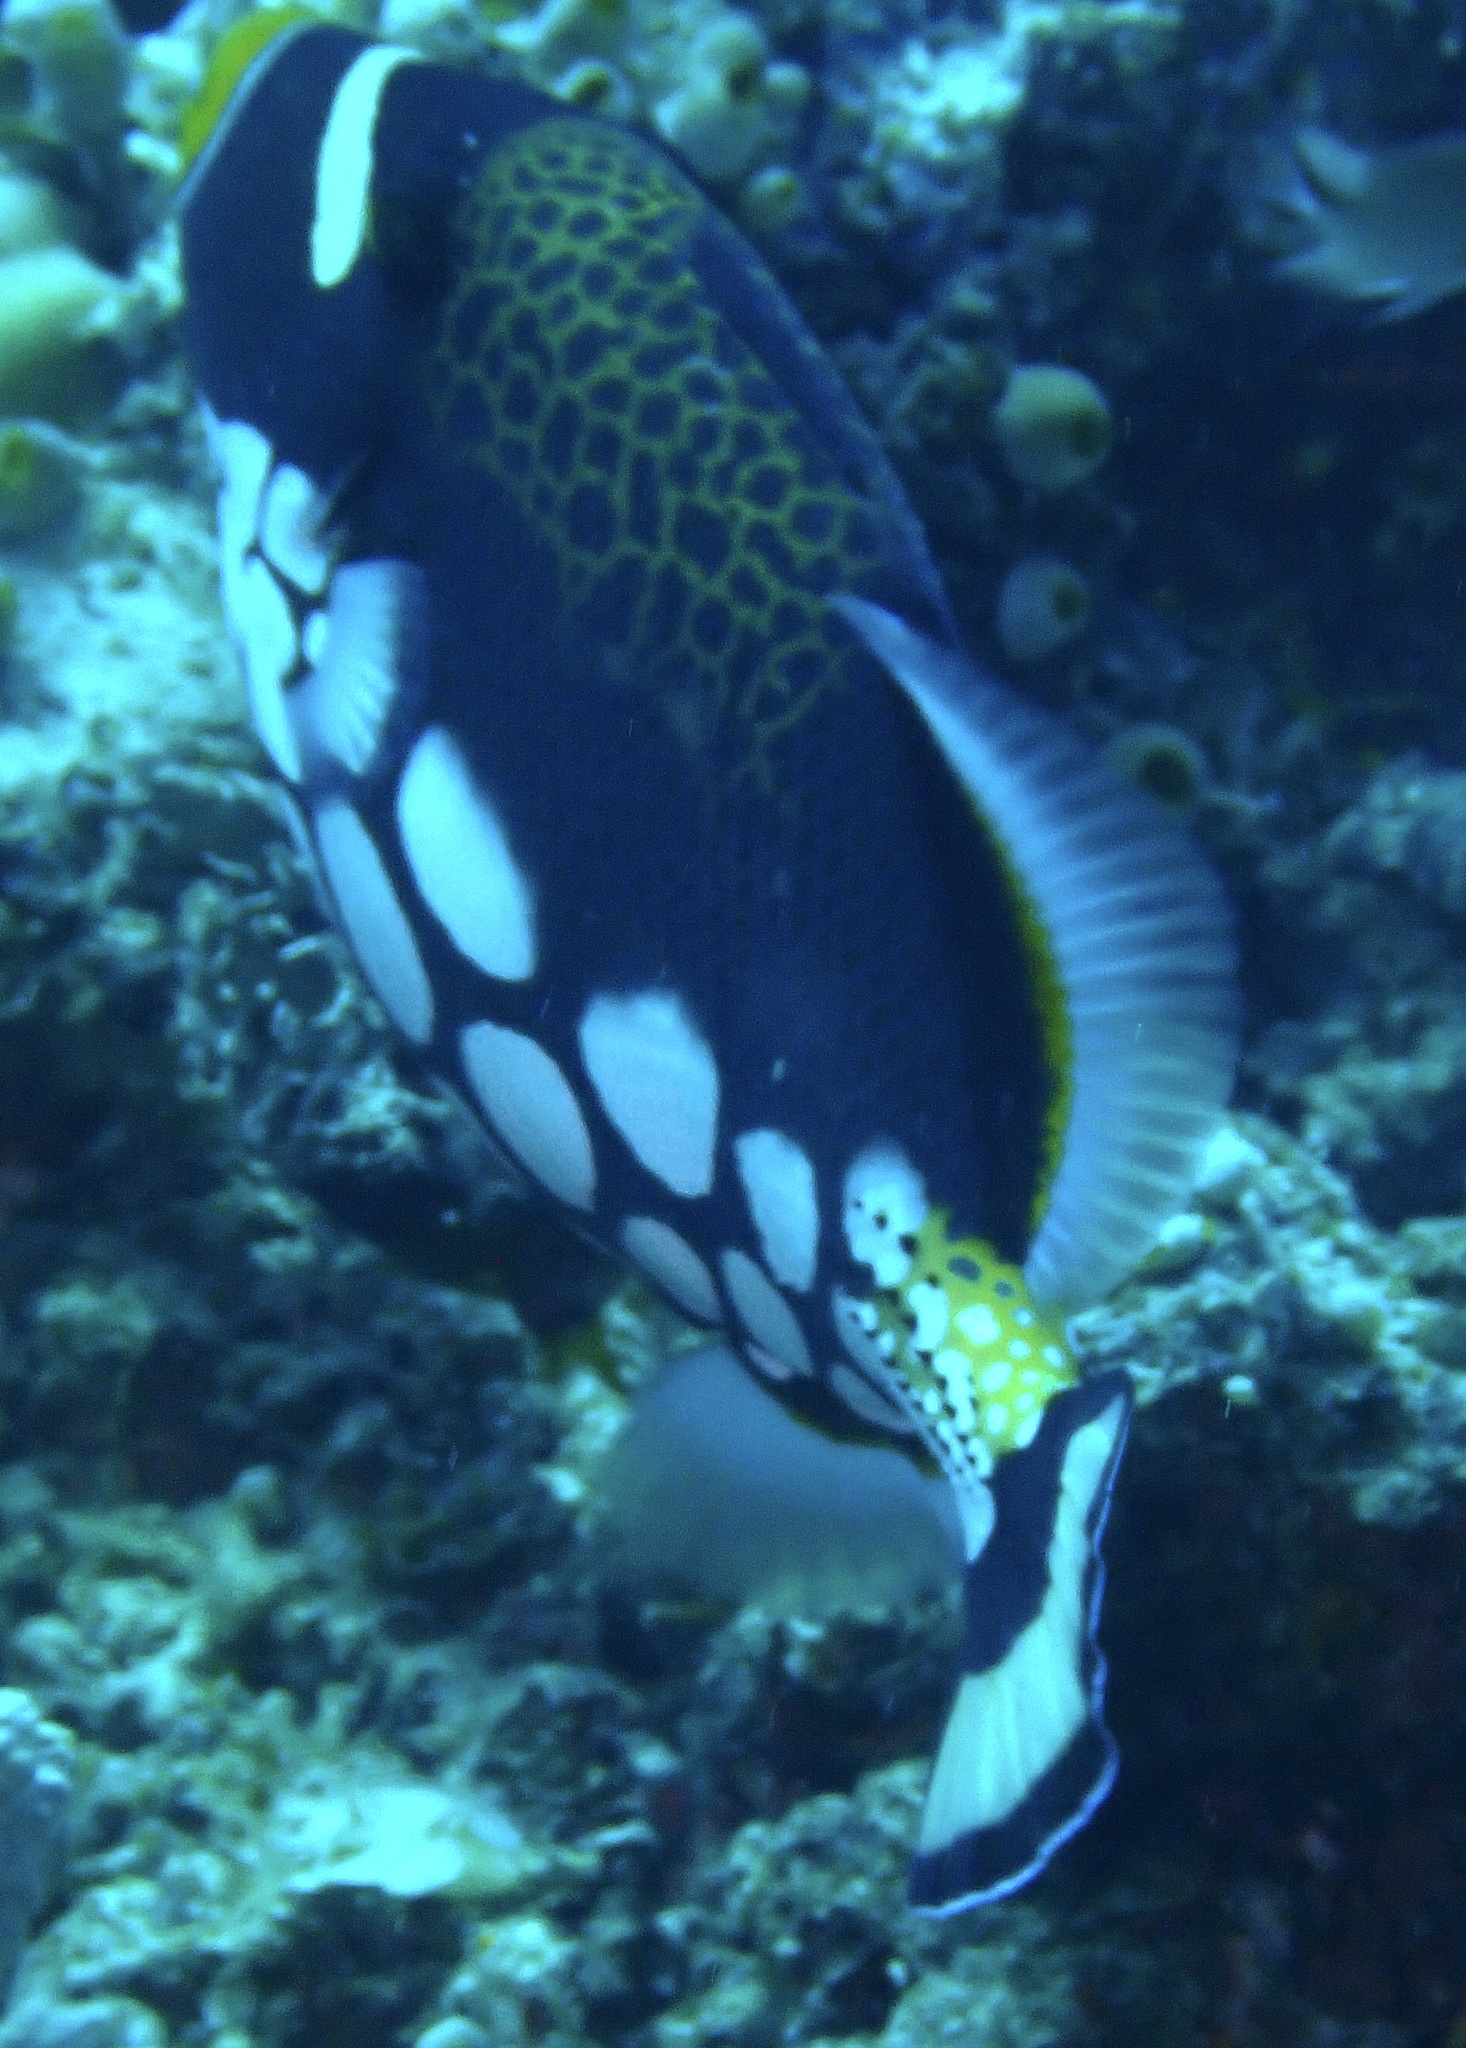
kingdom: Animalia
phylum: Chordata
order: Tetraodontiformes
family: Balistidae
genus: Balistoides
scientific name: Balistoides conspicillum
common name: Clown triggerfish
